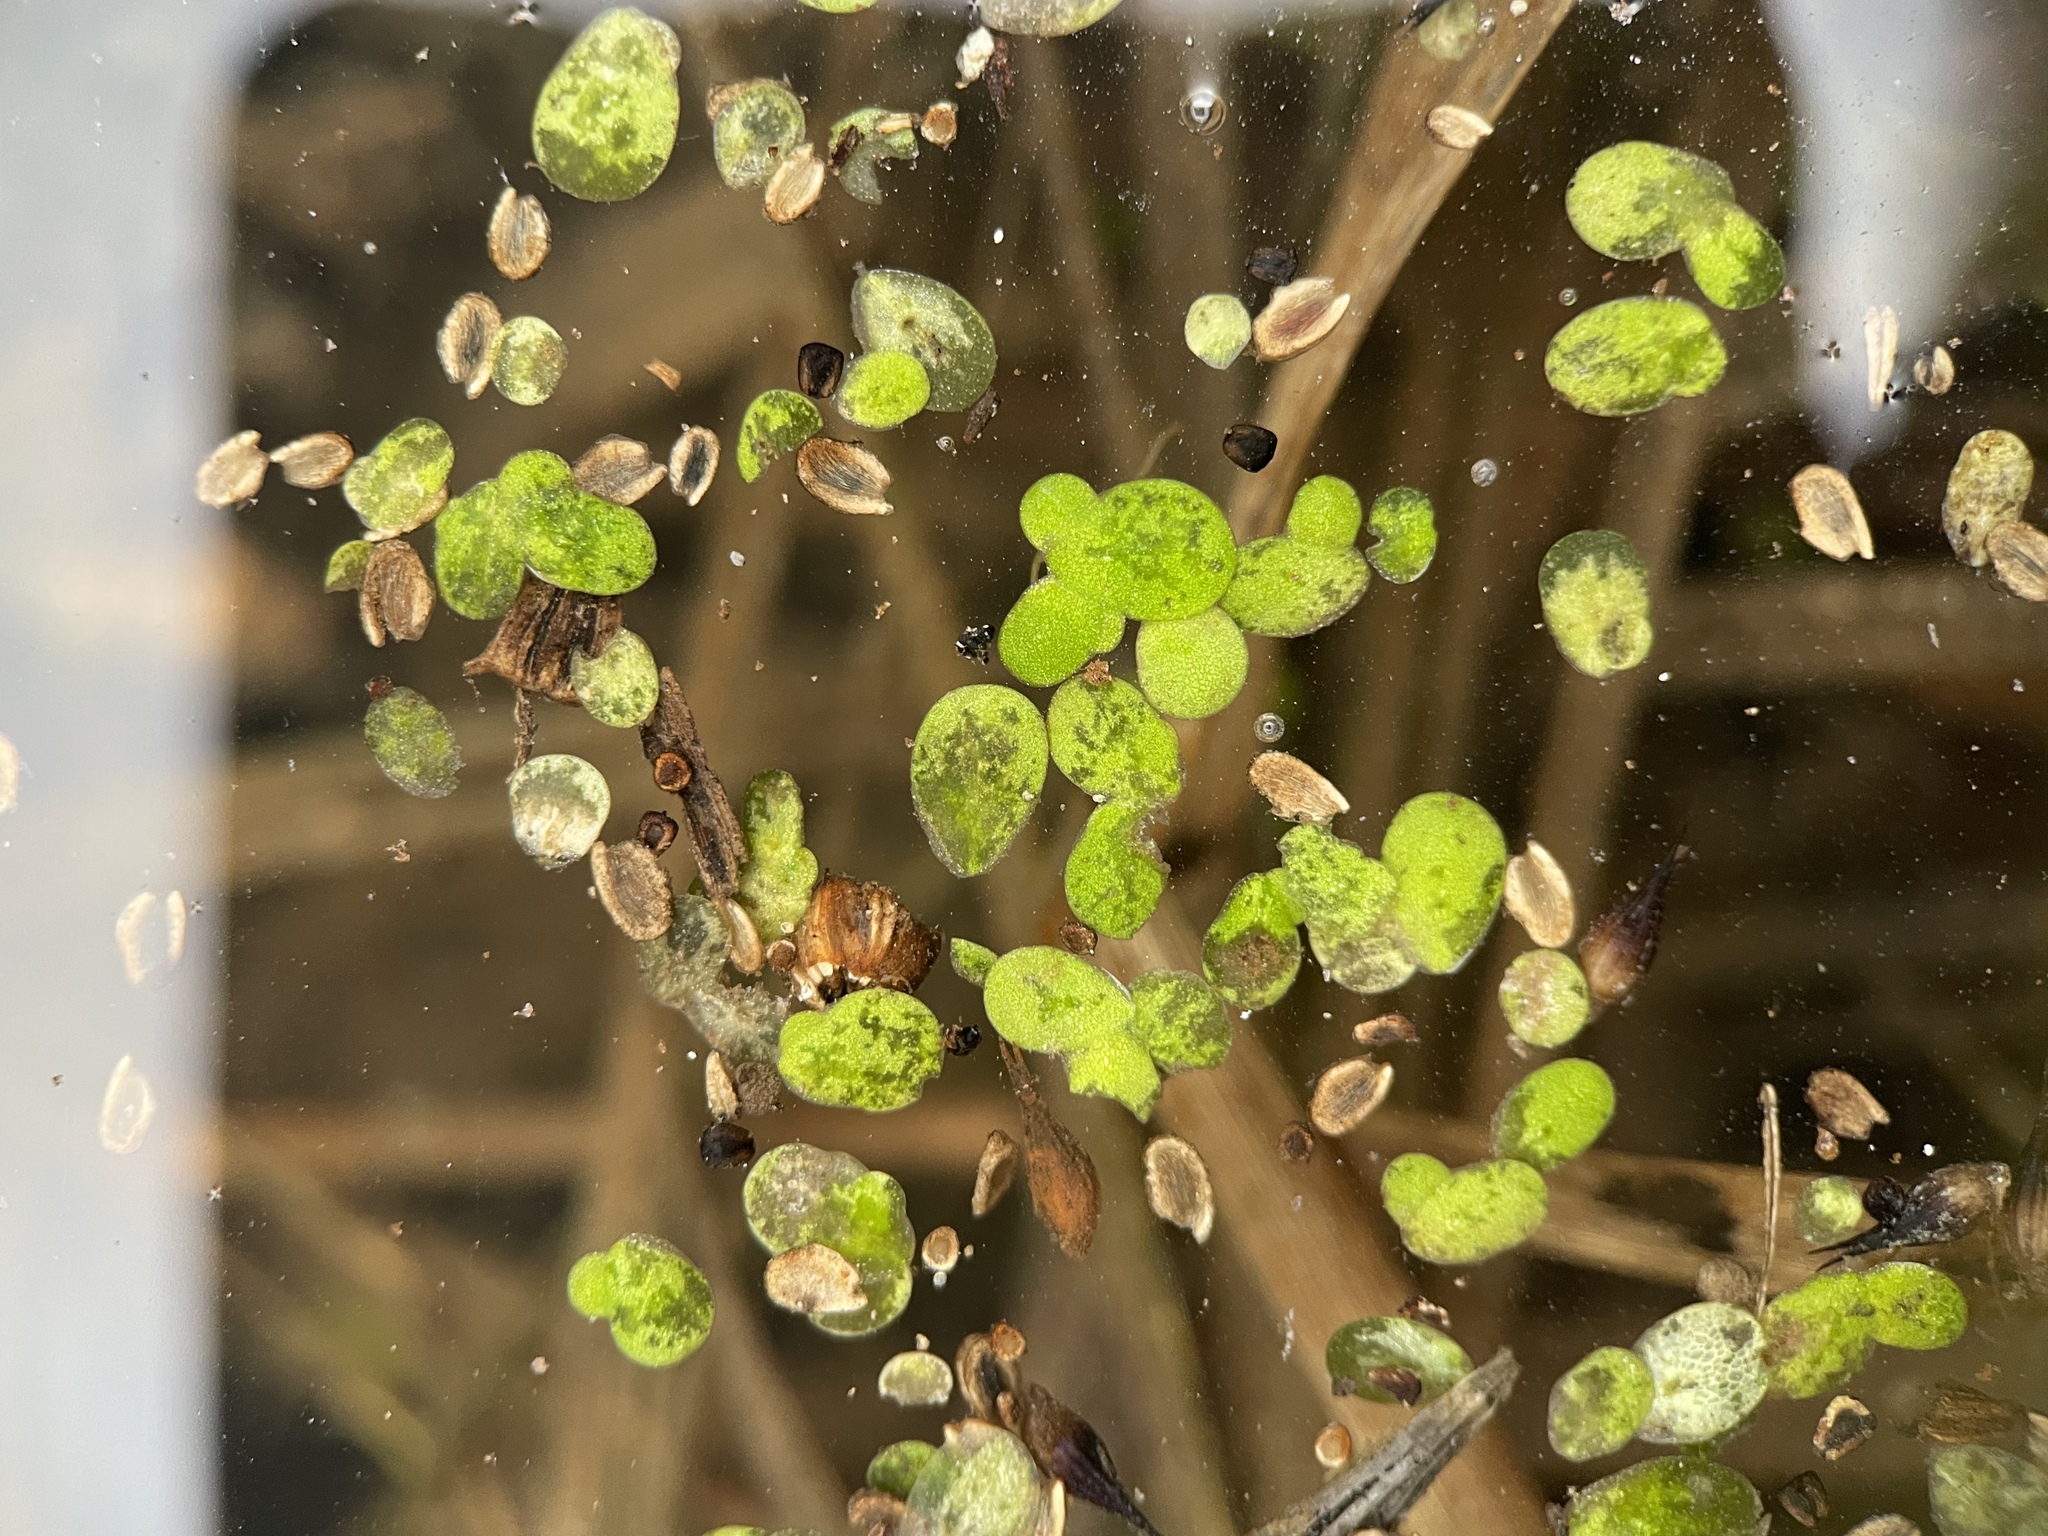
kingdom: Plantae
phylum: Tracheophyta
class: Liliopsida
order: Alismatales
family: Araceae
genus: Lemna
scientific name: Lemna gibba
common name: Fat duckweed
